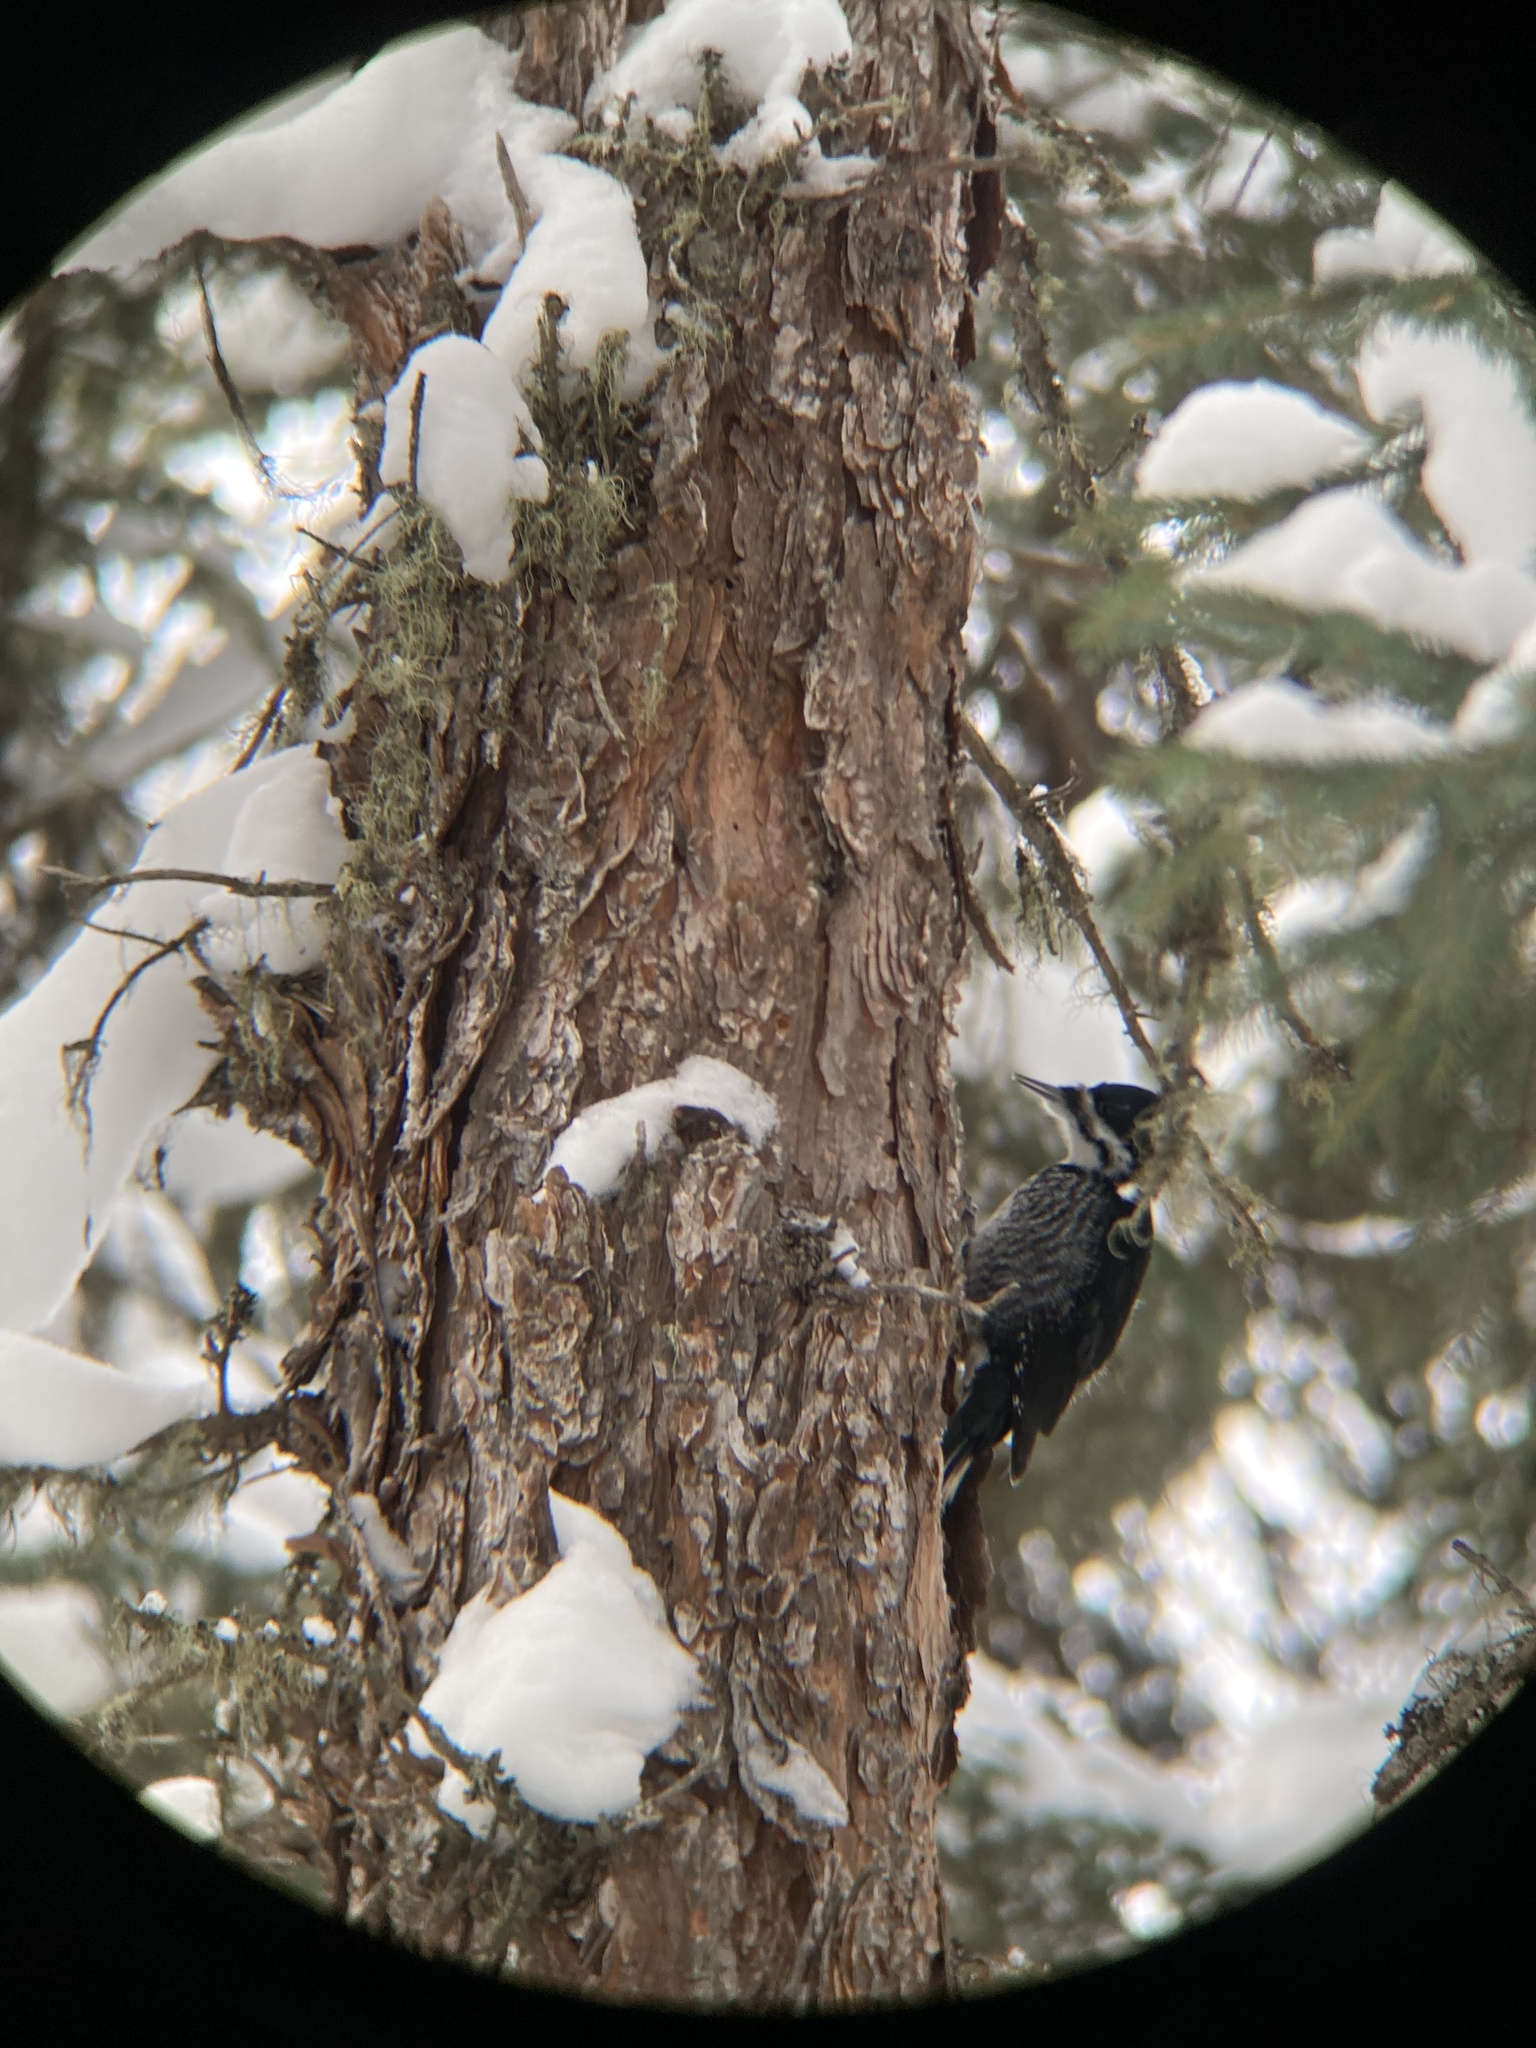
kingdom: Animalia
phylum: Chordata
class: Aves
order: Piciformes
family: Picidae
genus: Picoides
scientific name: Picoides arcticus
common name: Black-backed woodpecker
